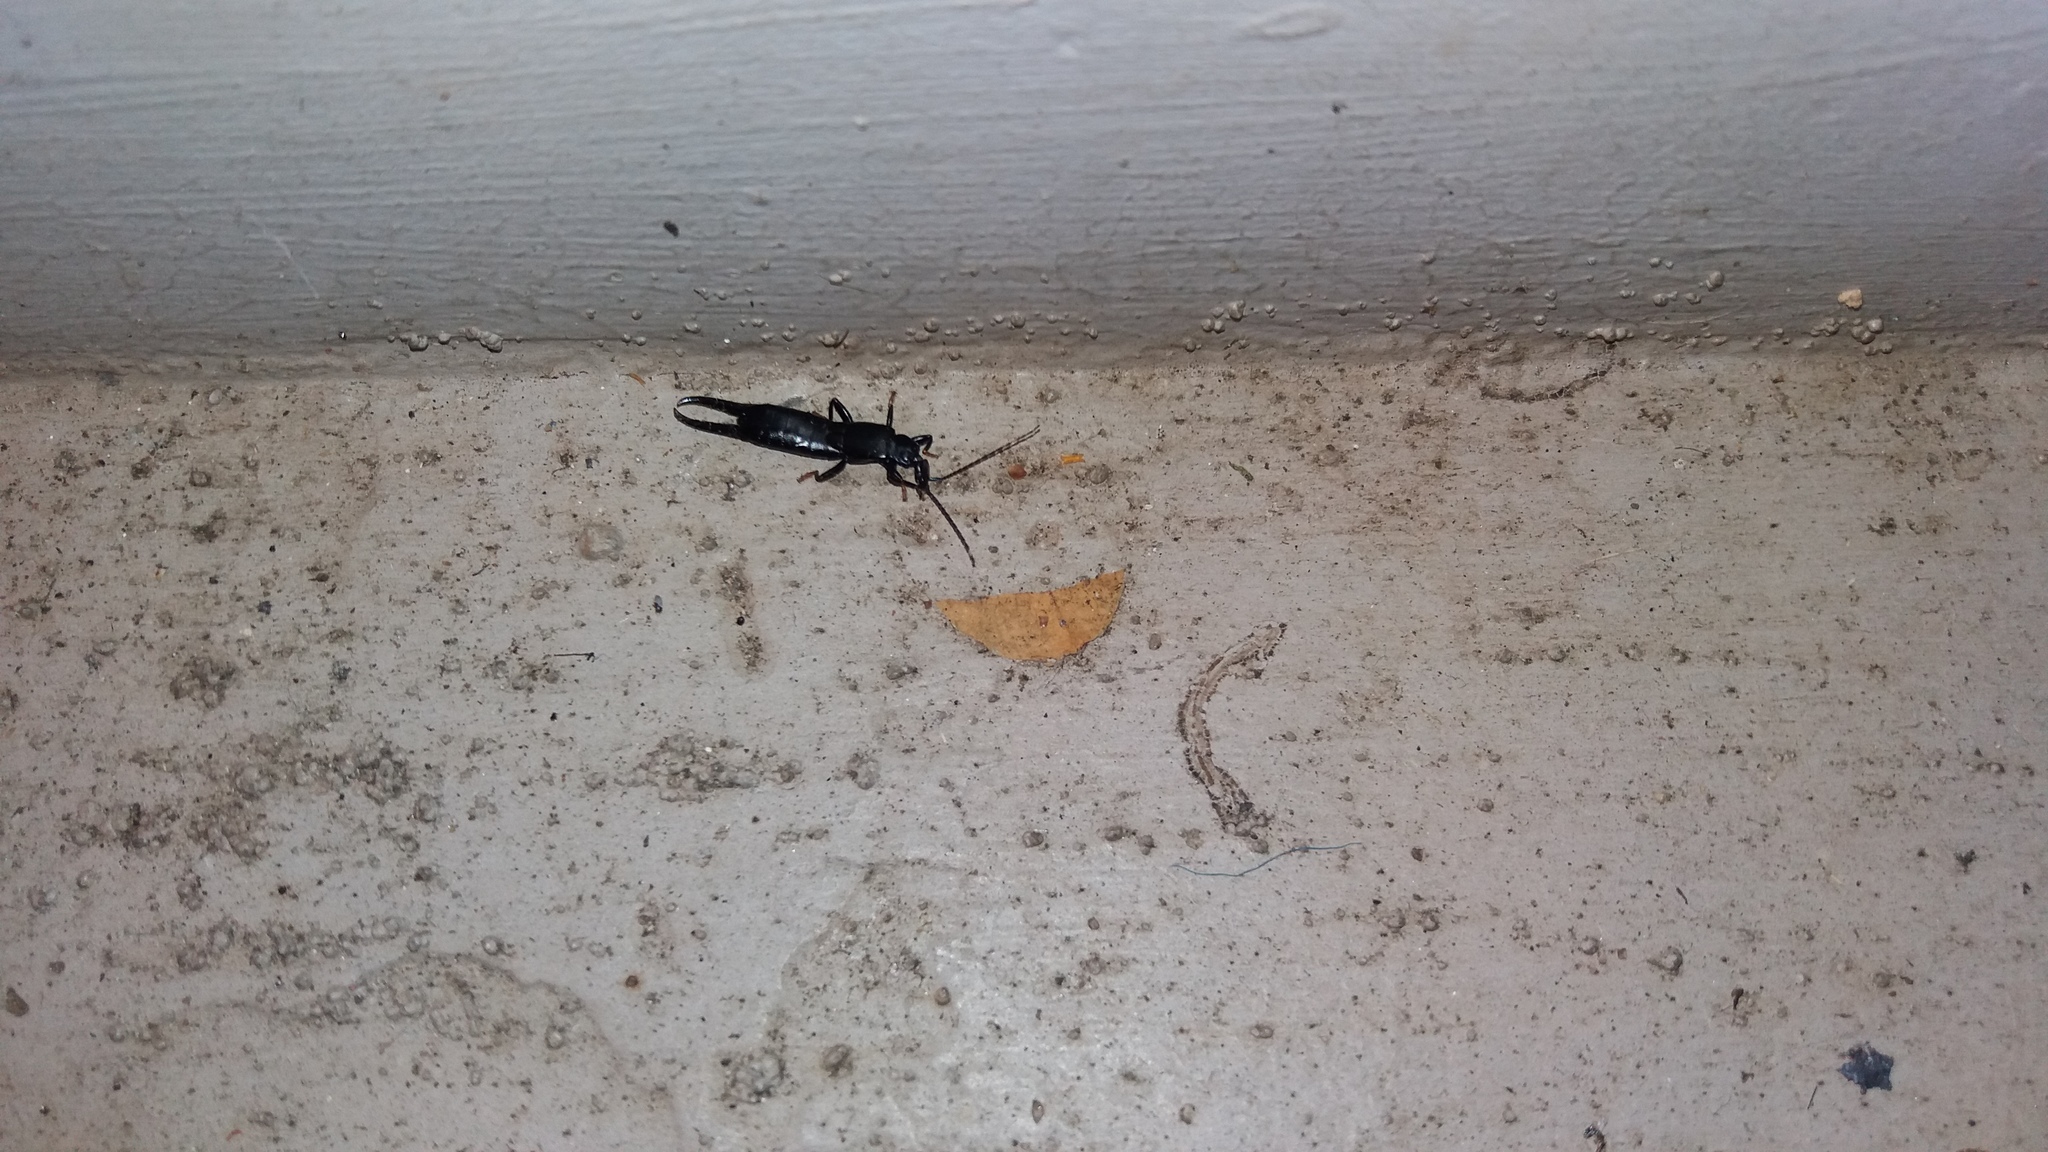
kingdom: Animalia
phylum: Arthropoda
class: Insecta
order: Dermaptera
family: Chelisochidae
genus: Chelisoches
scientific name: Chelisoches morio
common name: Black earwig
